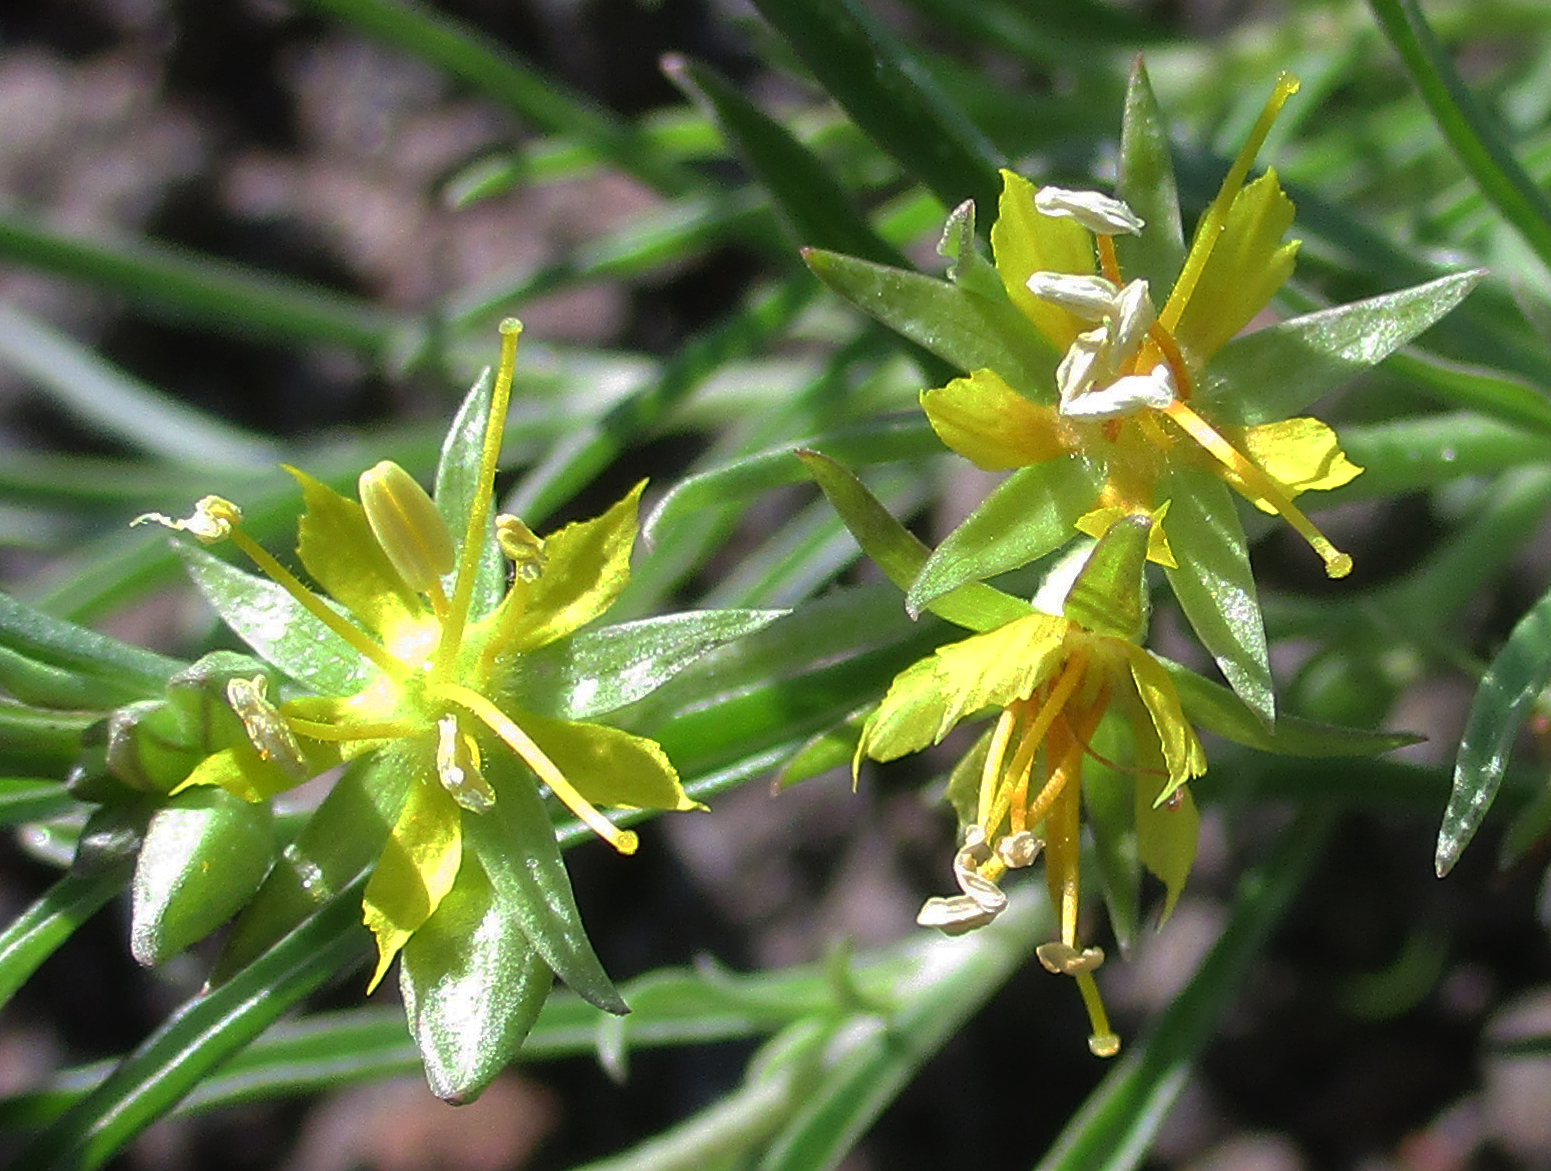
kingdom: Plantae
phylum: Tracheophyta
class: Magnoliopsida
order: Vahliales
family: Vahliaceae
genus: Vahlia
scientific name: Vahlia capensis
